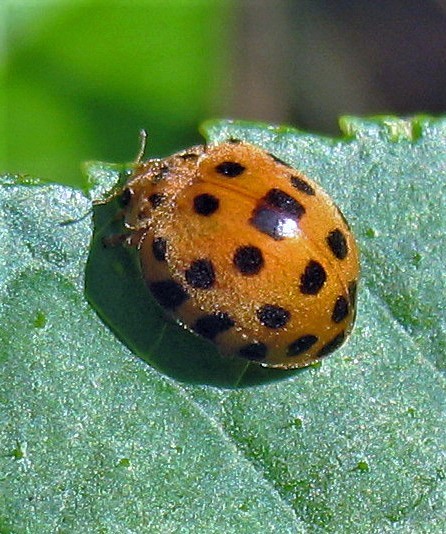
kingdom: Animalia
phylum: Arthropoda
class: Insecta
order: Coleoptera
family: Coccinellidae
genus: Henosepilachna
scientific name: Henosepilachna vigintioctopunctata
